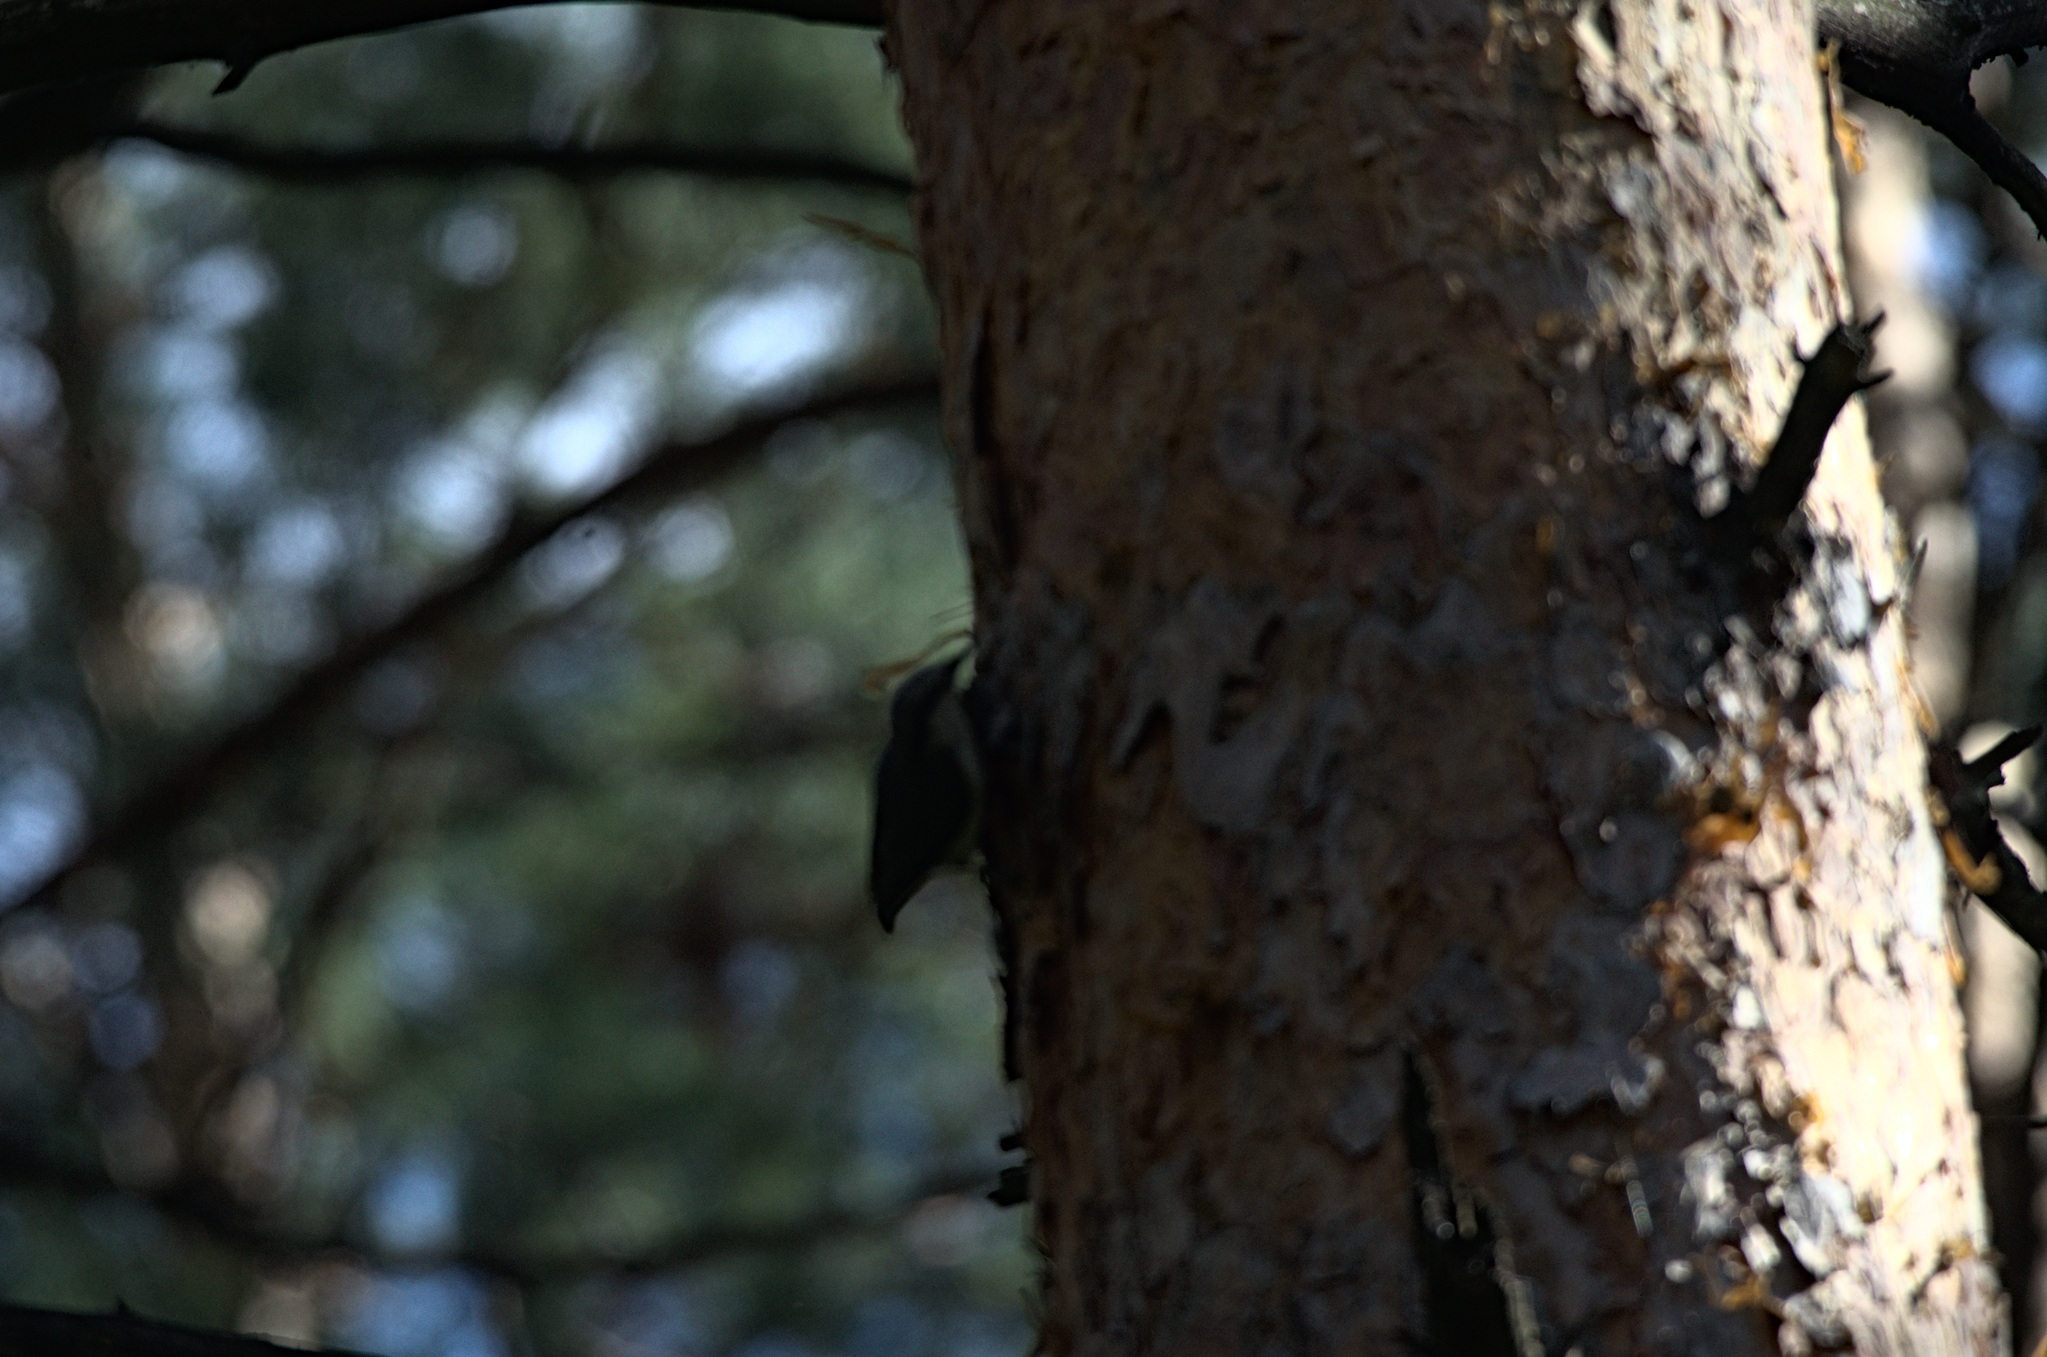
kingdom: Animalia
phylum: Chordata
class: Aves
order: Passeriformes
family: Sittidae
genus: Sitta
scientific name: Sitta europaea
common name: Eurasian nuthatch
